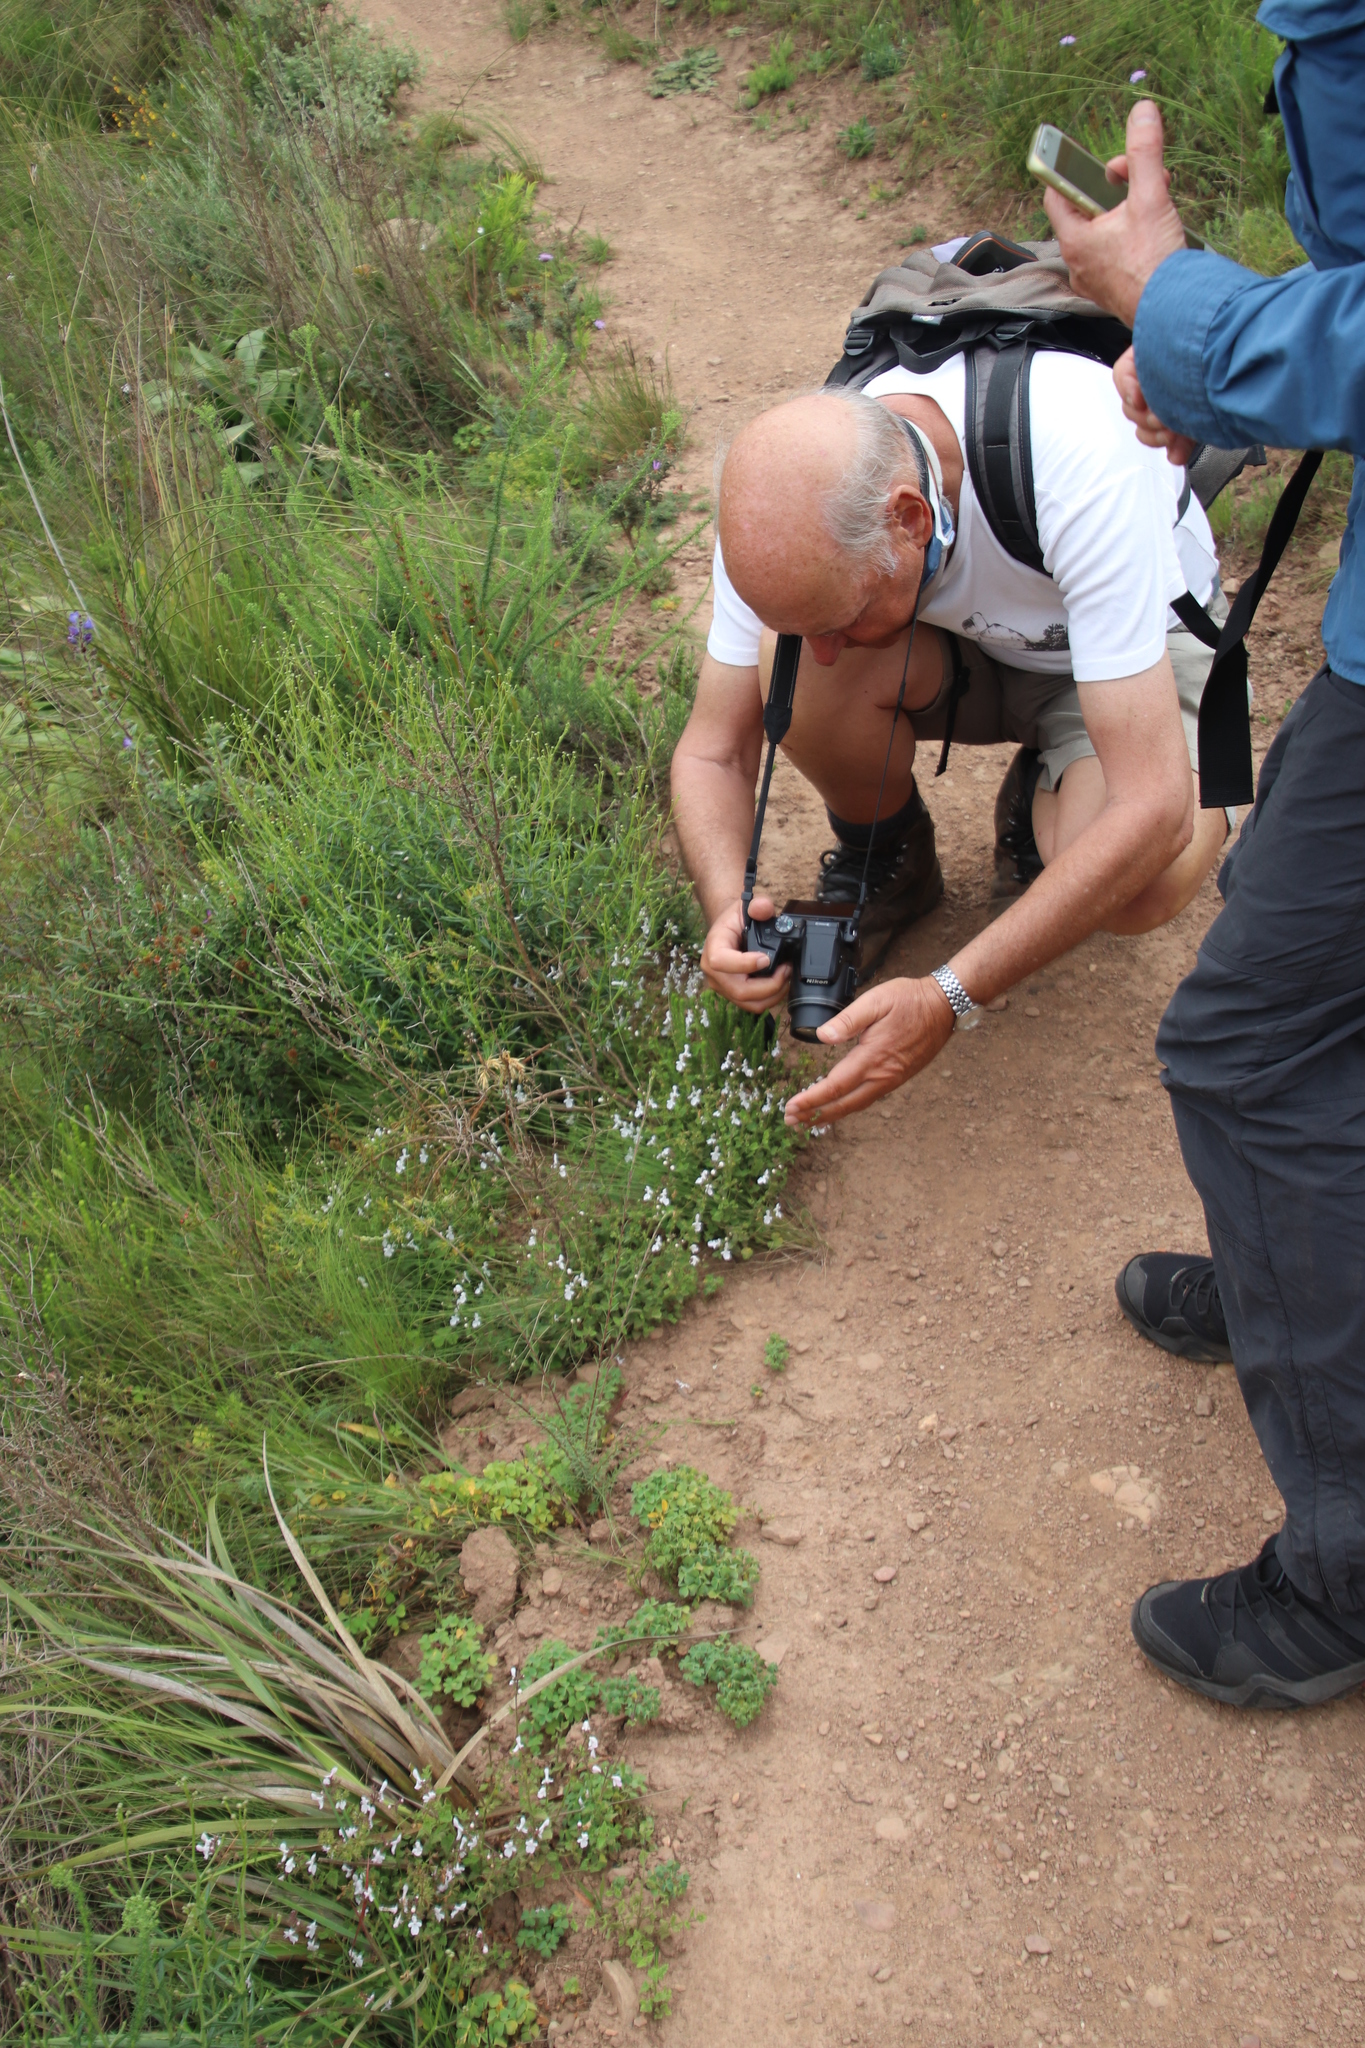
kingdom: Plantae
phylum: Tracheophyta
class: Magnoliopsida
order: Lamiales
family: Lamiaceae
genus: Stachys
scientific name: Stachys aethiopica
